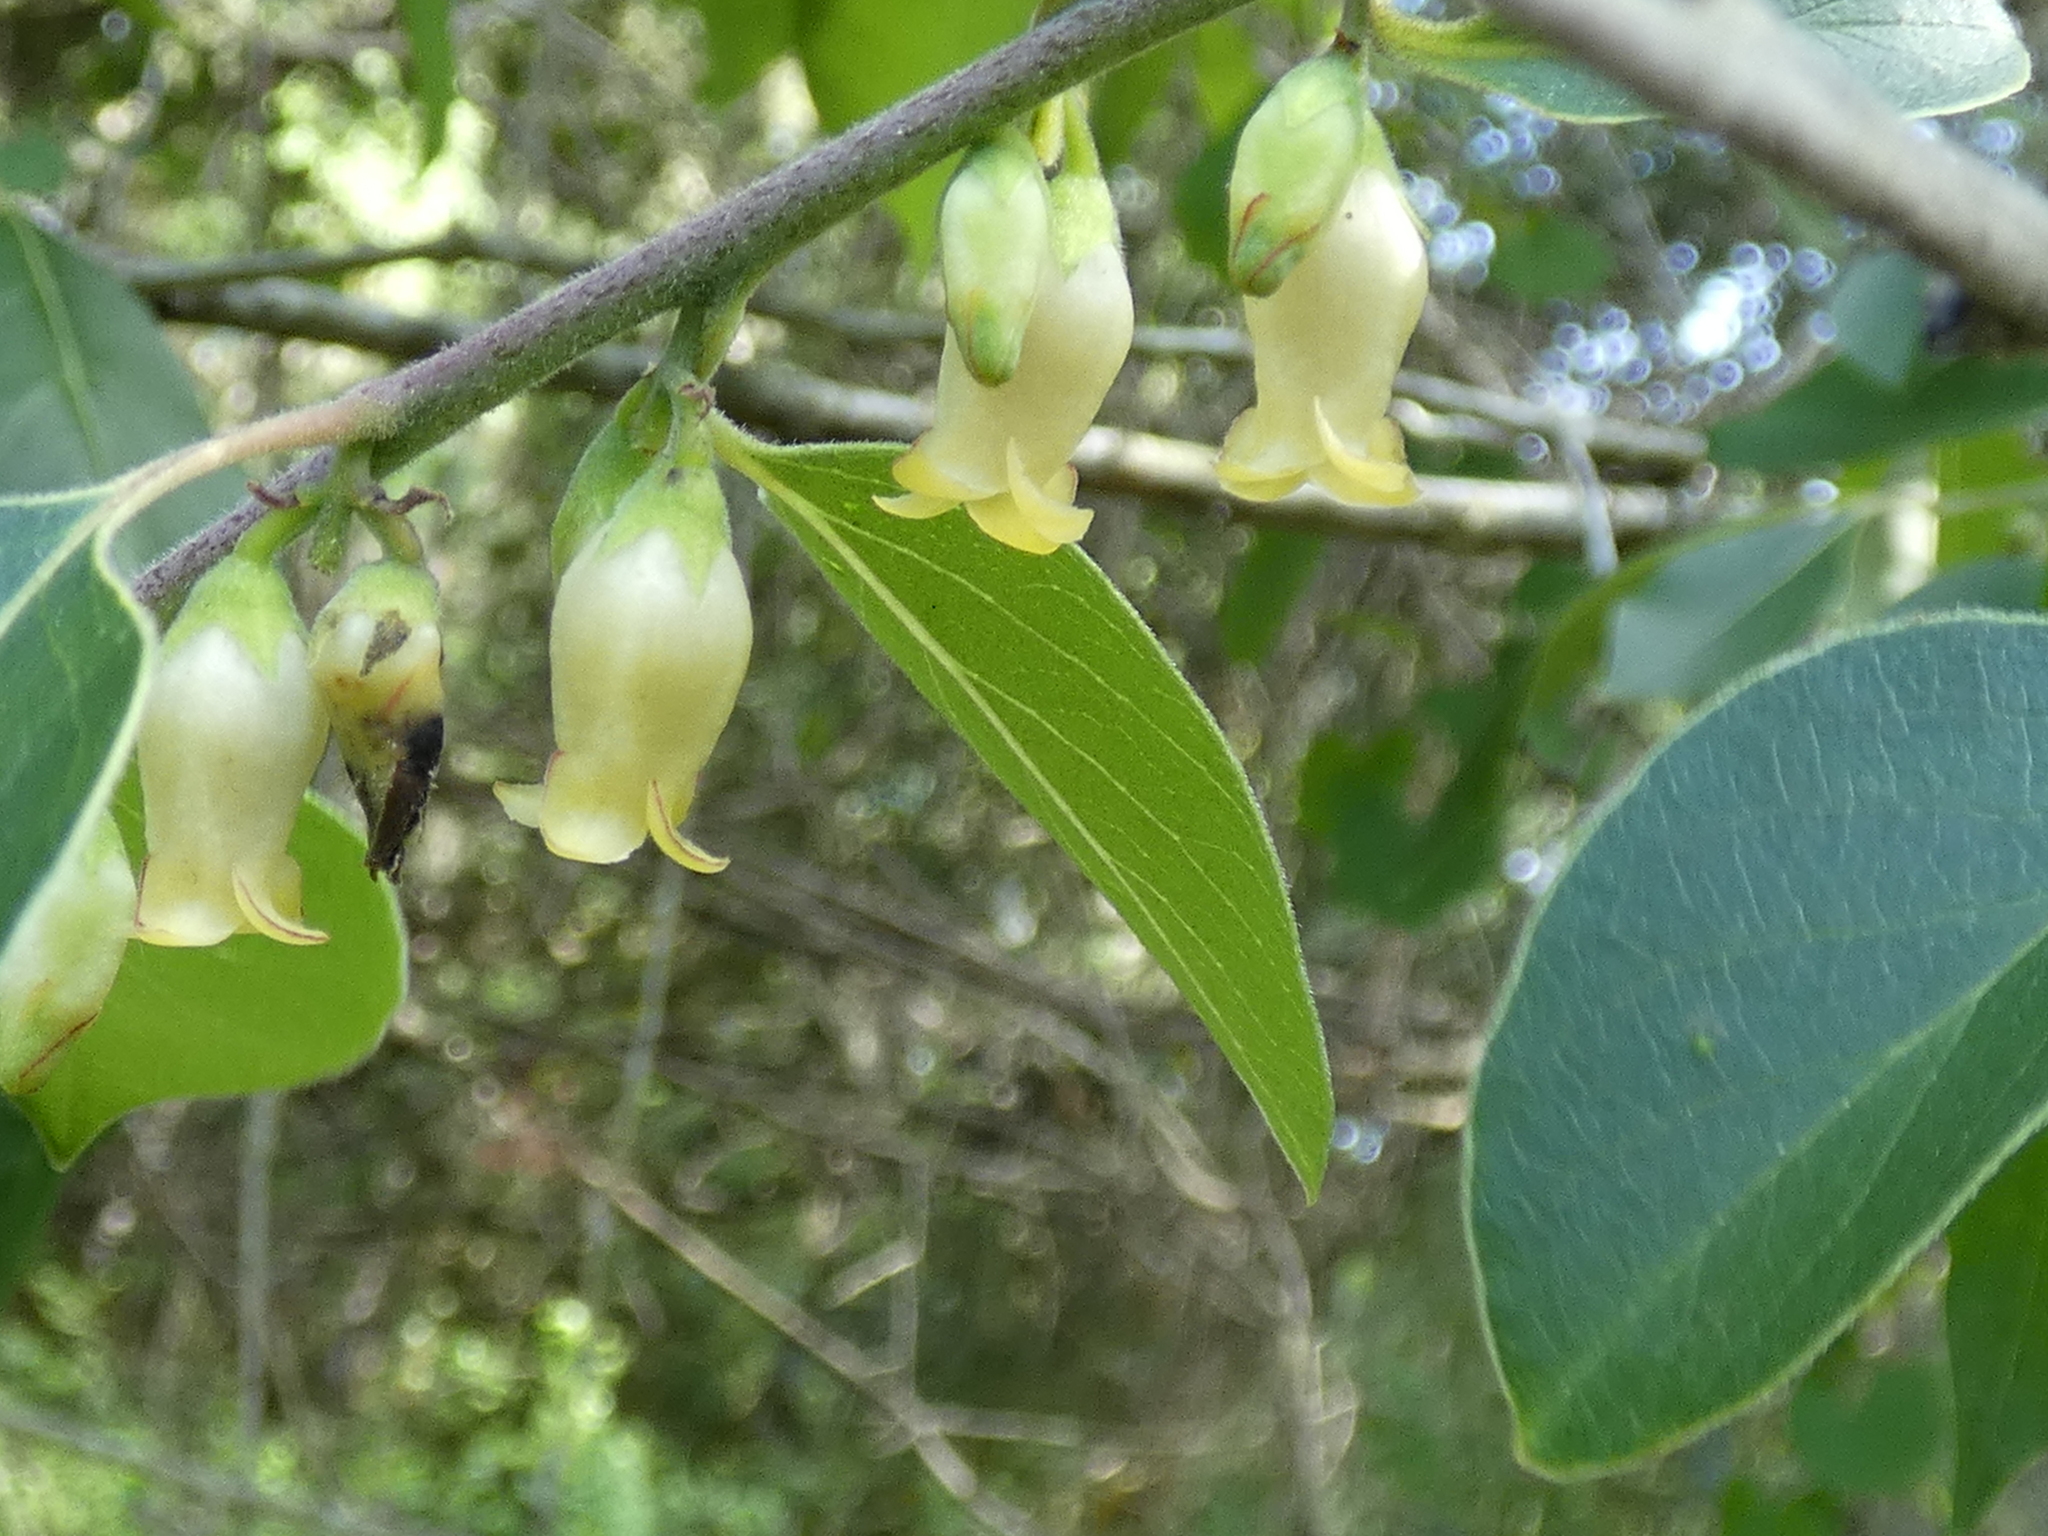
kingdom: Plantae
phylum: Tracheophyta
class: Magnoliopsida
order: Ericales
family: Ebenaceae
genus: Diospyros
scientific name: Diospyros virginiana
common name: Persimmon
